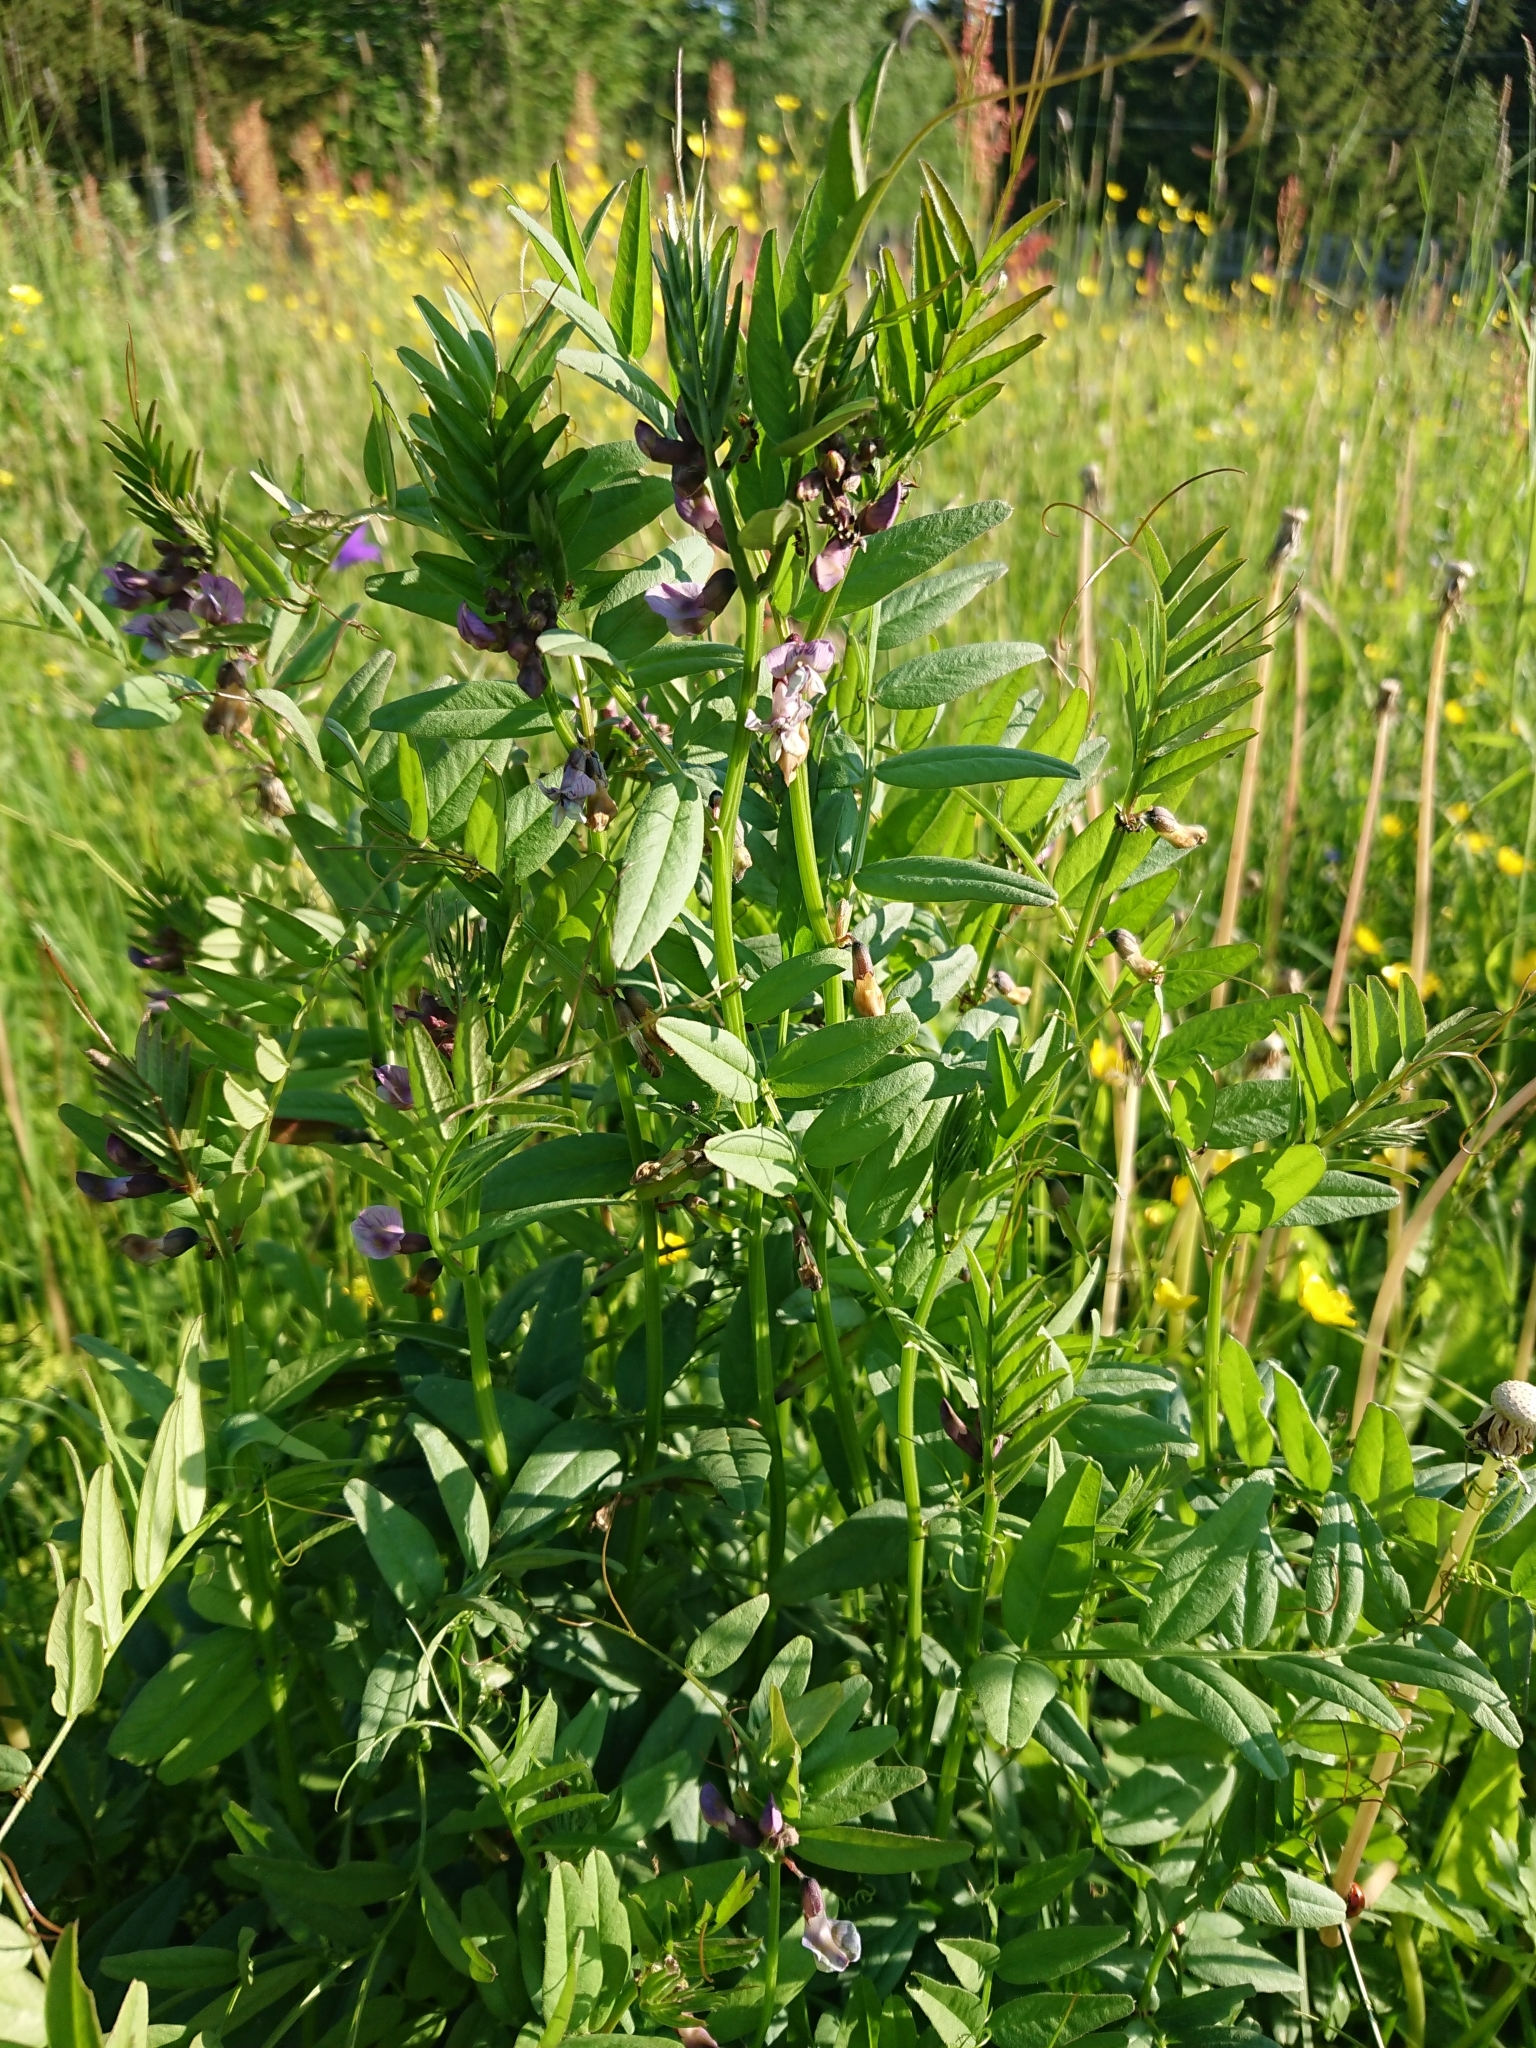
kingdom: Plantae
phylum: Tracheophyta
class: Magnoliopsida
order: Fabales
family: Fabaceae
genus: Vicia
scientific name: Vicia sepium
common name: Bush vetch
